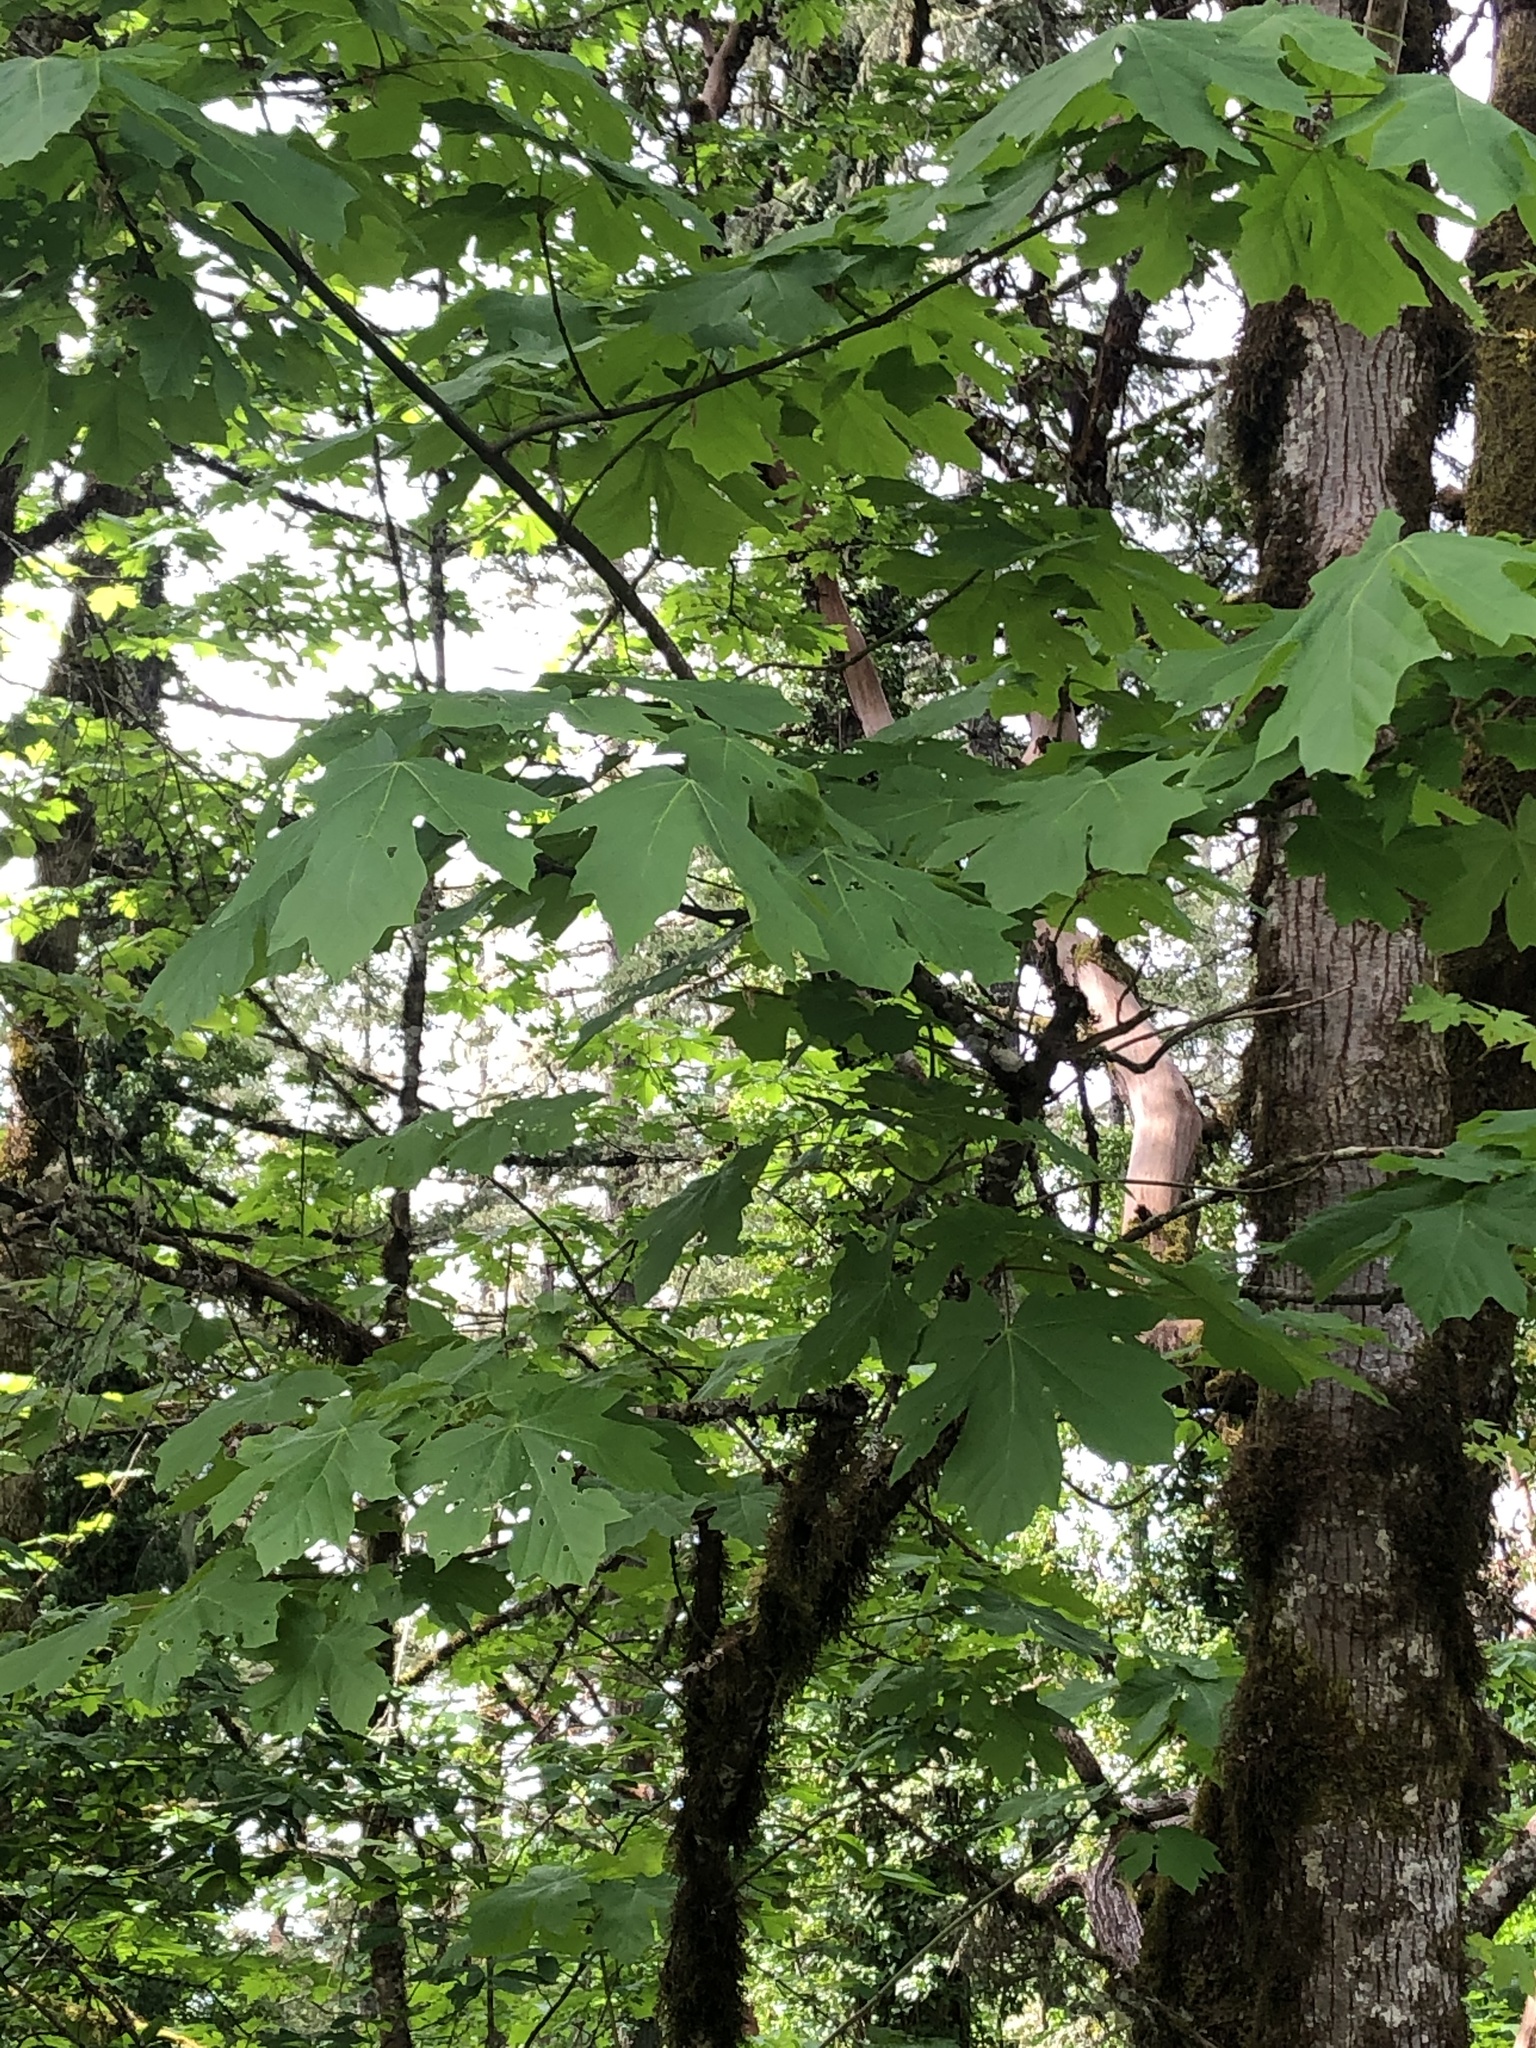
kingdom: Plantae
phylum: Tracheophyta
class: Magnoliopsida
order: Sapindales
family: Sapindaceae
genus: Acer
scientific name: Acer macrophyllum
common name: Oregon maple
